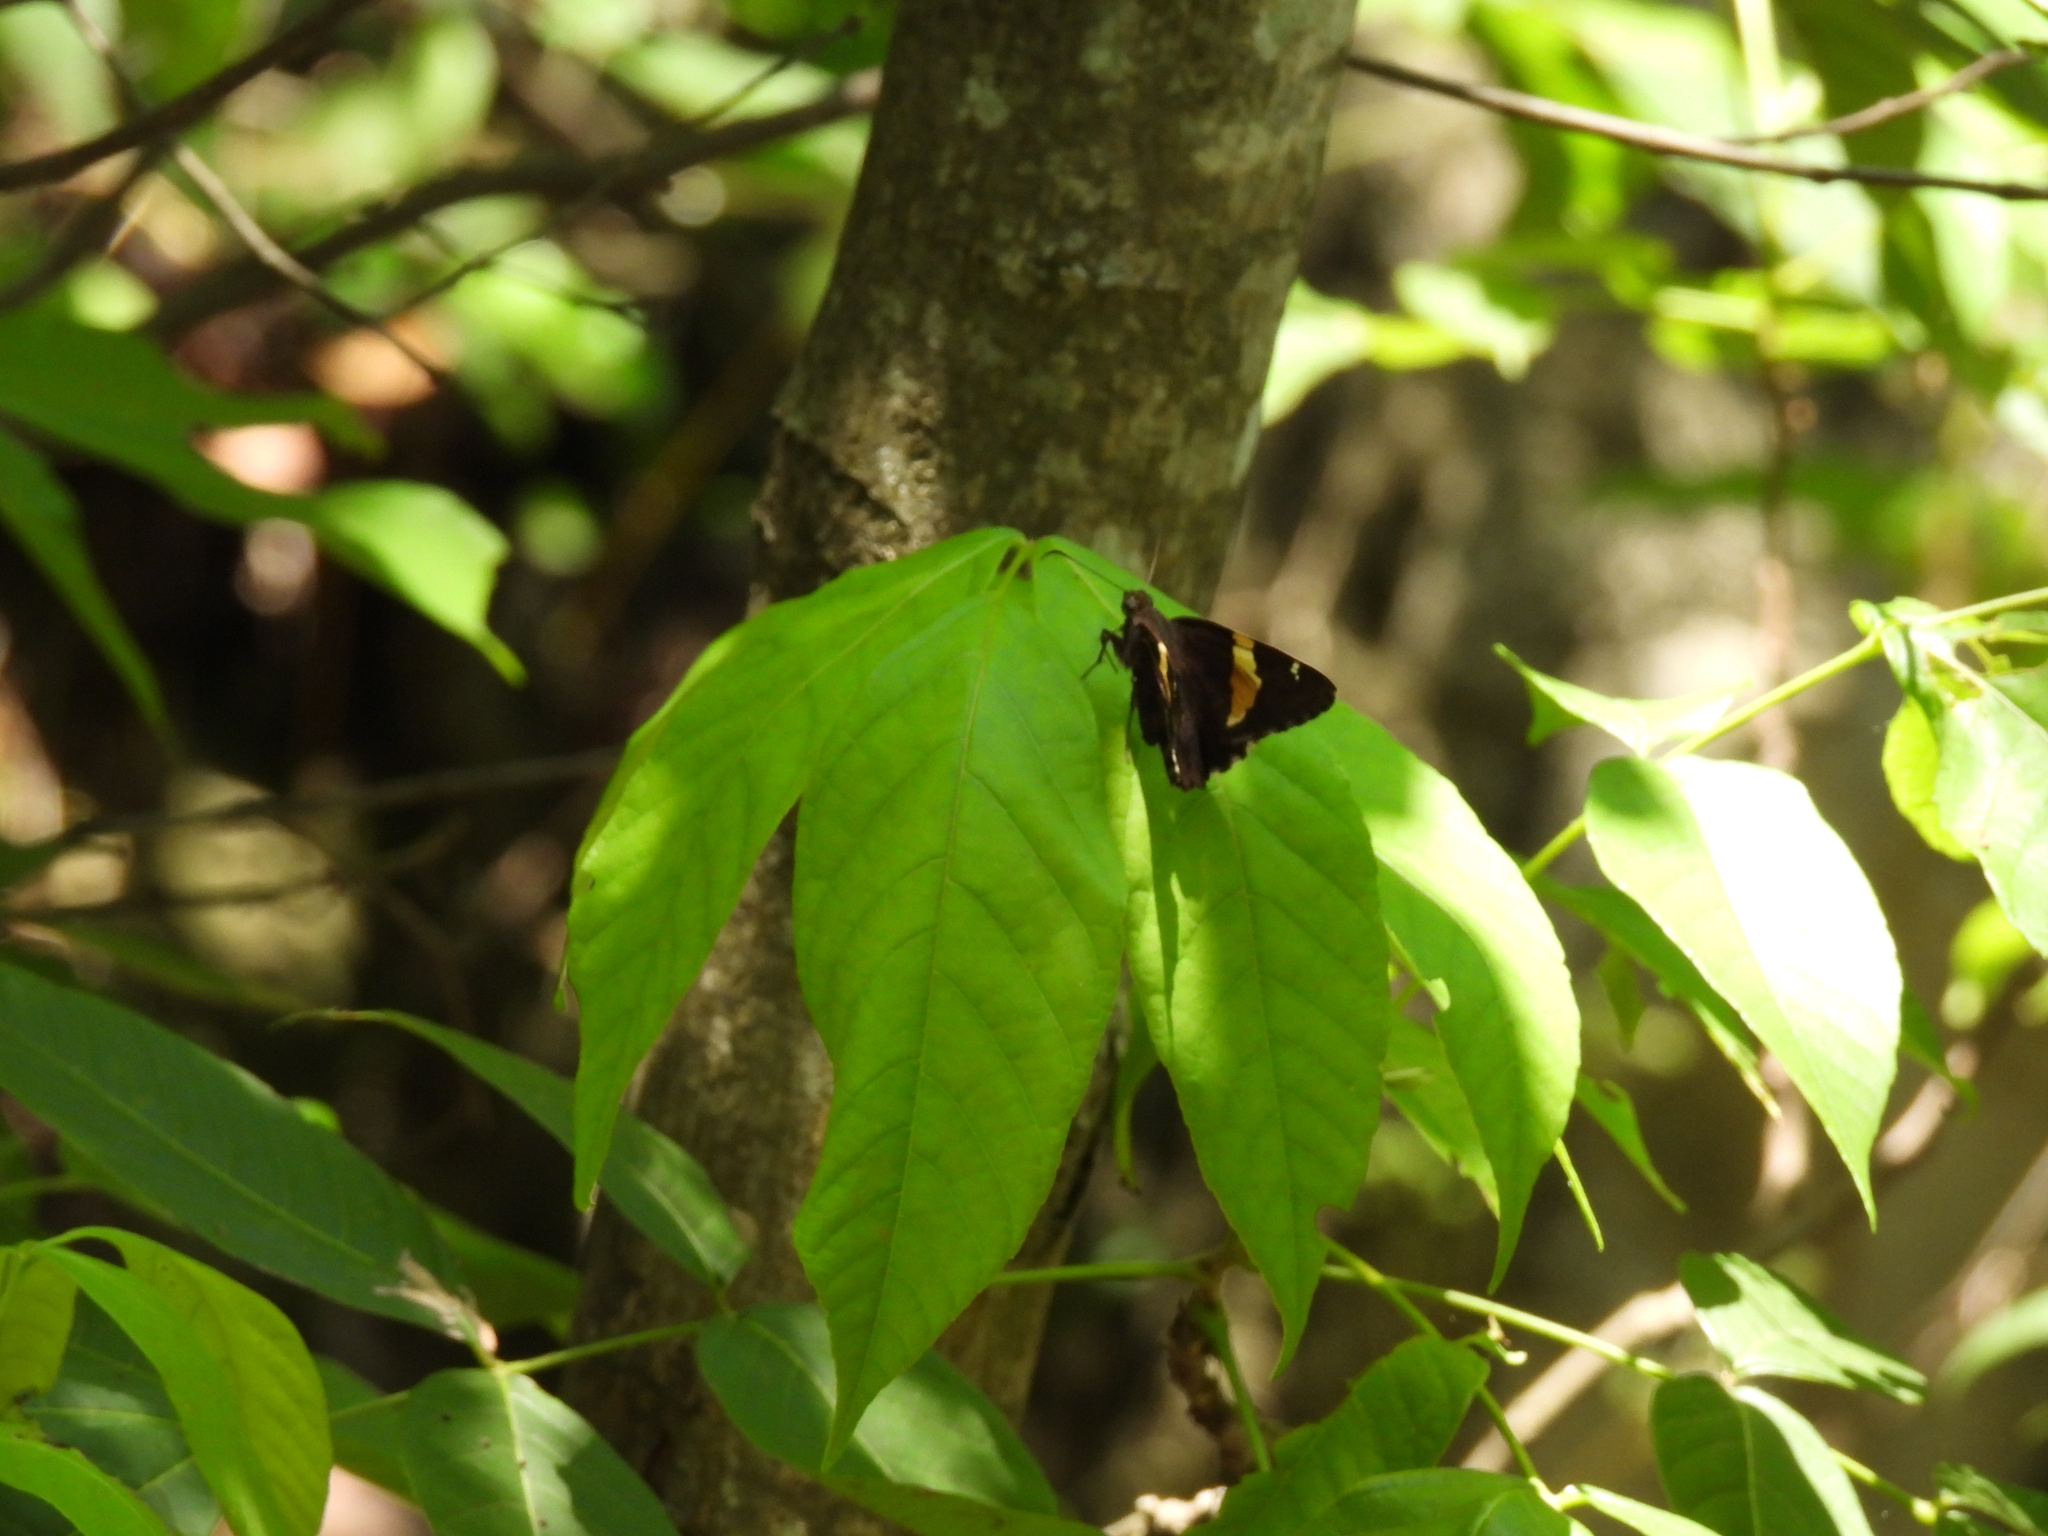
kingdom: Animalia
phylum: Arthropoda
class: Arachnida
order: Scorpiones
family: Bothriuridae
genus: Telegonus
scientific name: Telegonus cellus
